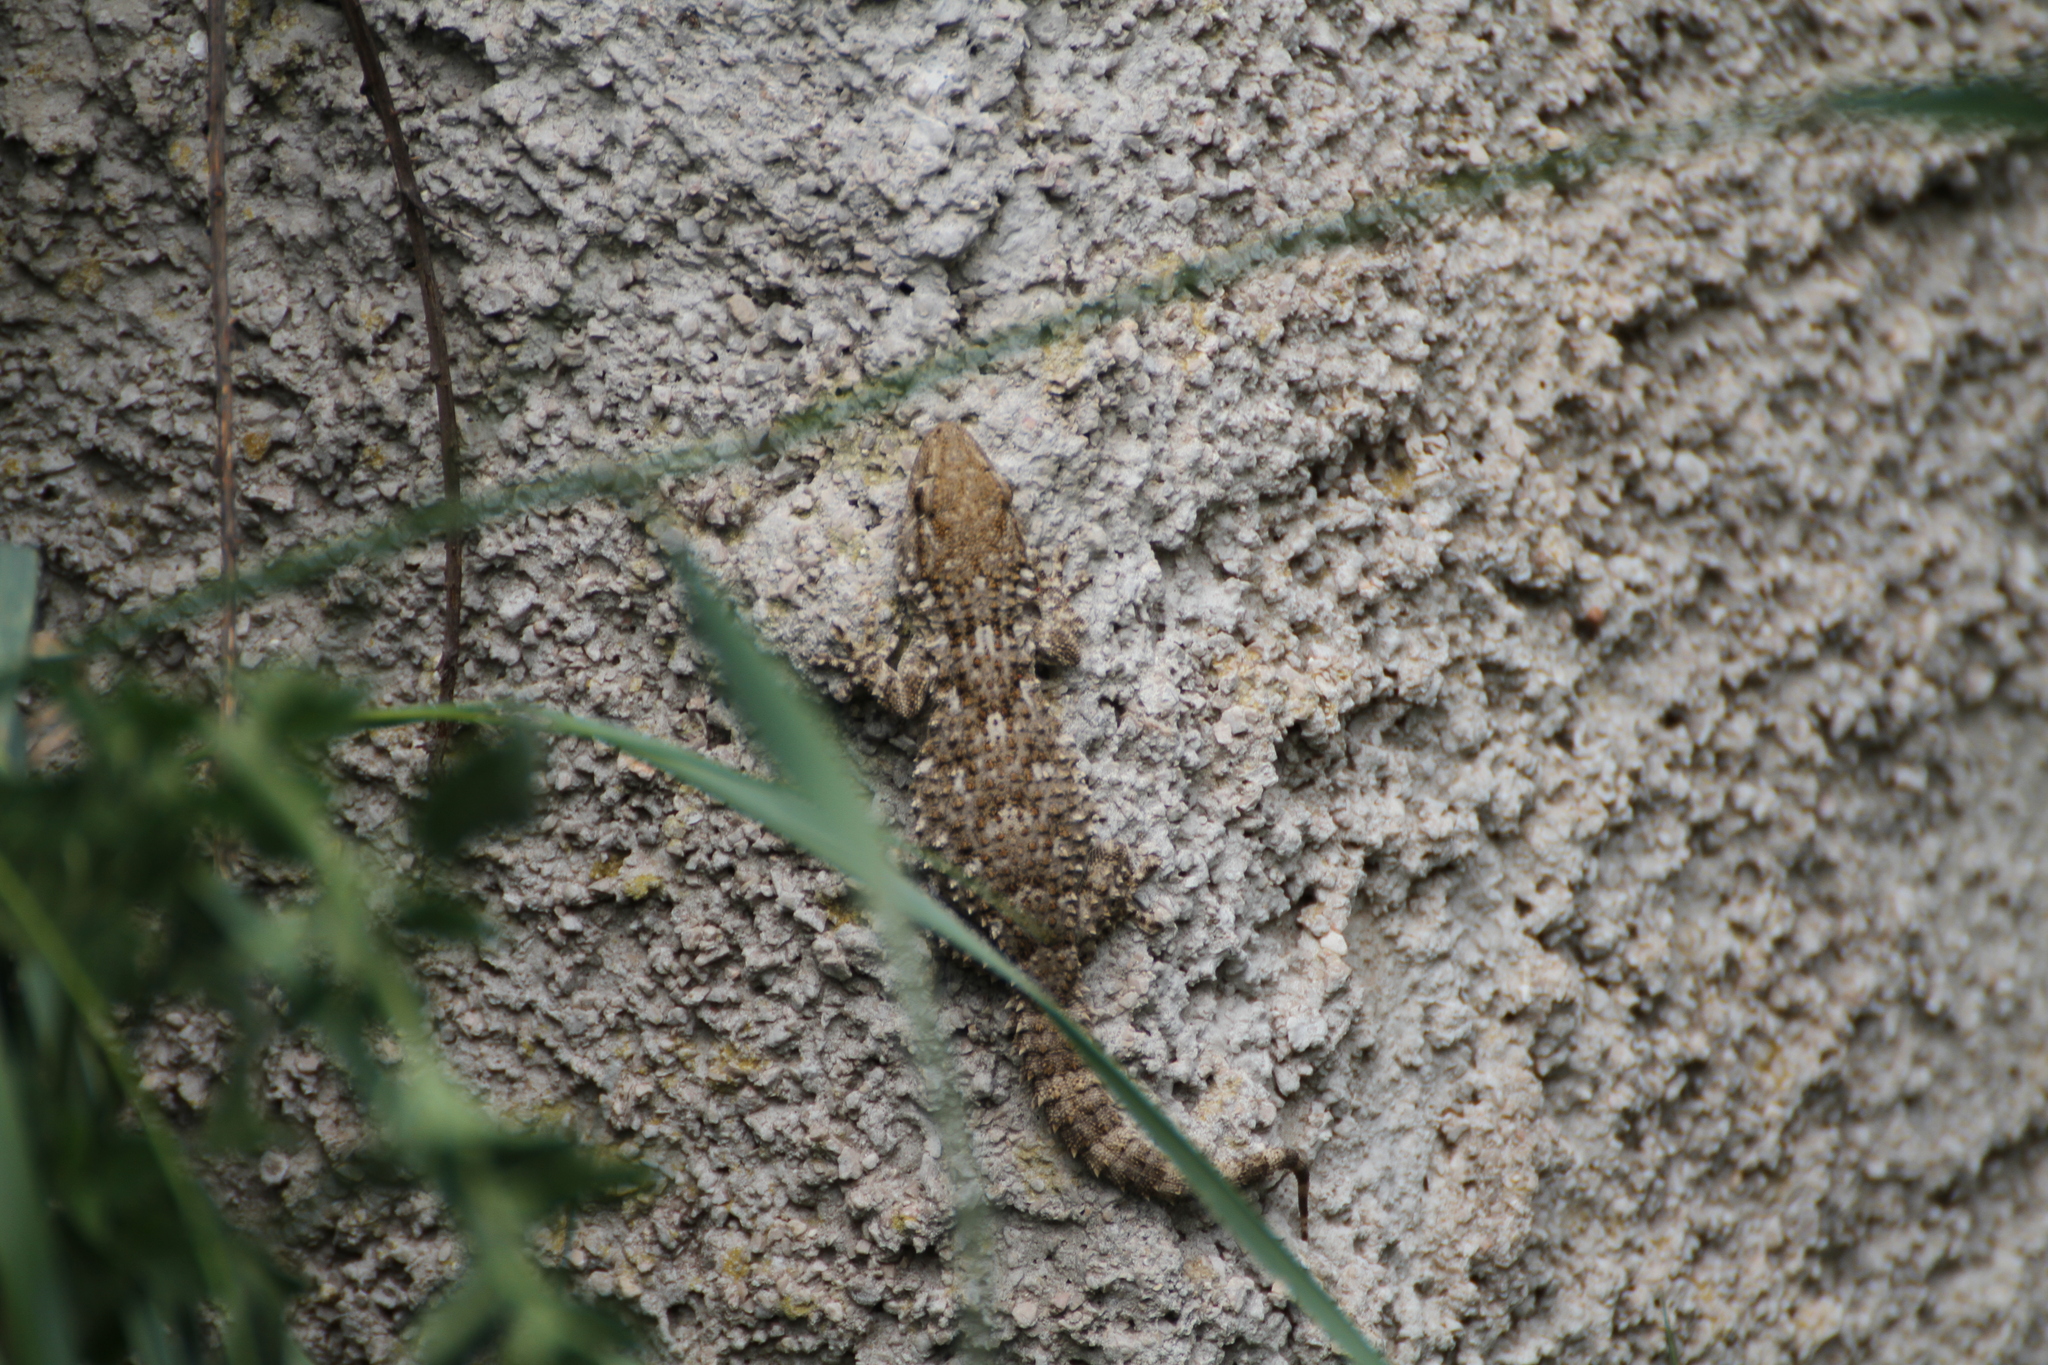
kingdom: Animalia
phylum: Chordata
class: Squamata
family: Phyllodactylidae
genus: Tarentola
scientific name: Tarentola mauritanica
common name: Moorish gecko
